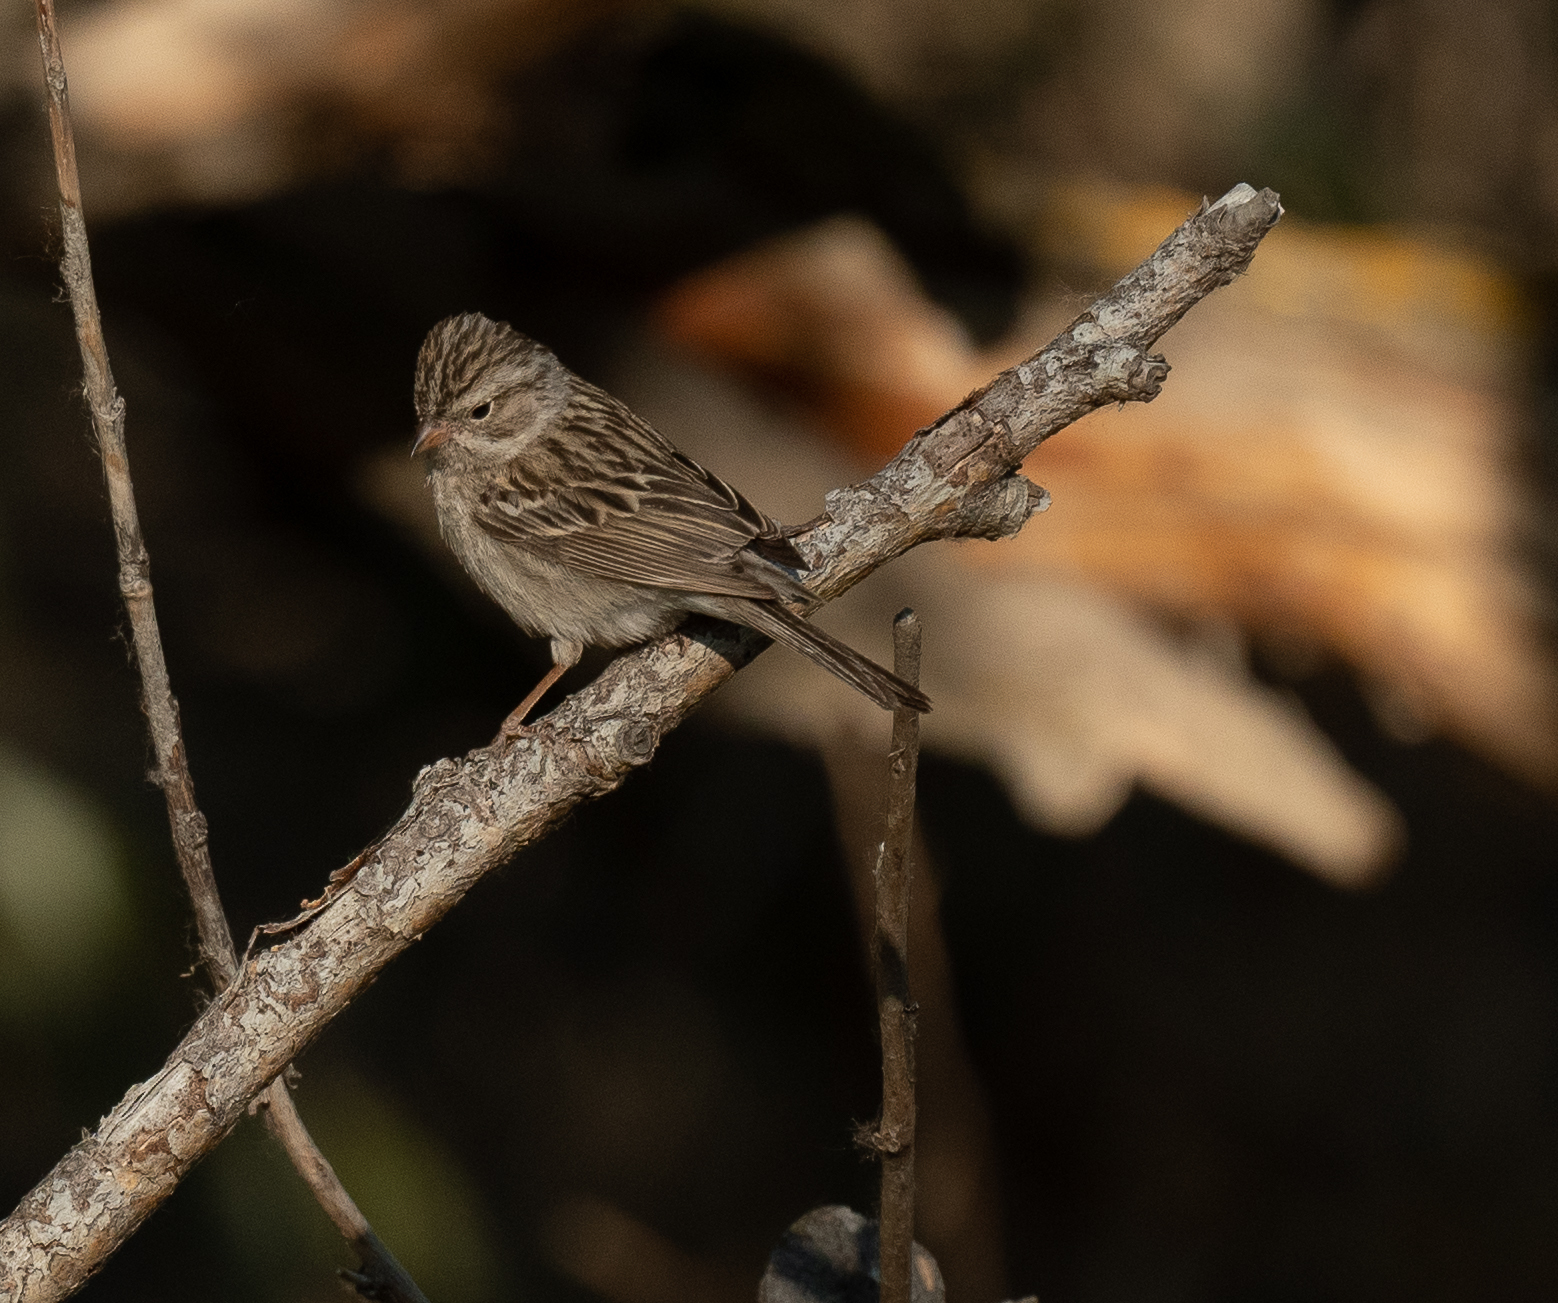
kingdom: Animalia
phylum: Chordata
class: Aves
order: Passeriformes
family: Passerellidae
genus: Spizella
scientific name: Spizella breweri
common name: Brewer's sparrow
